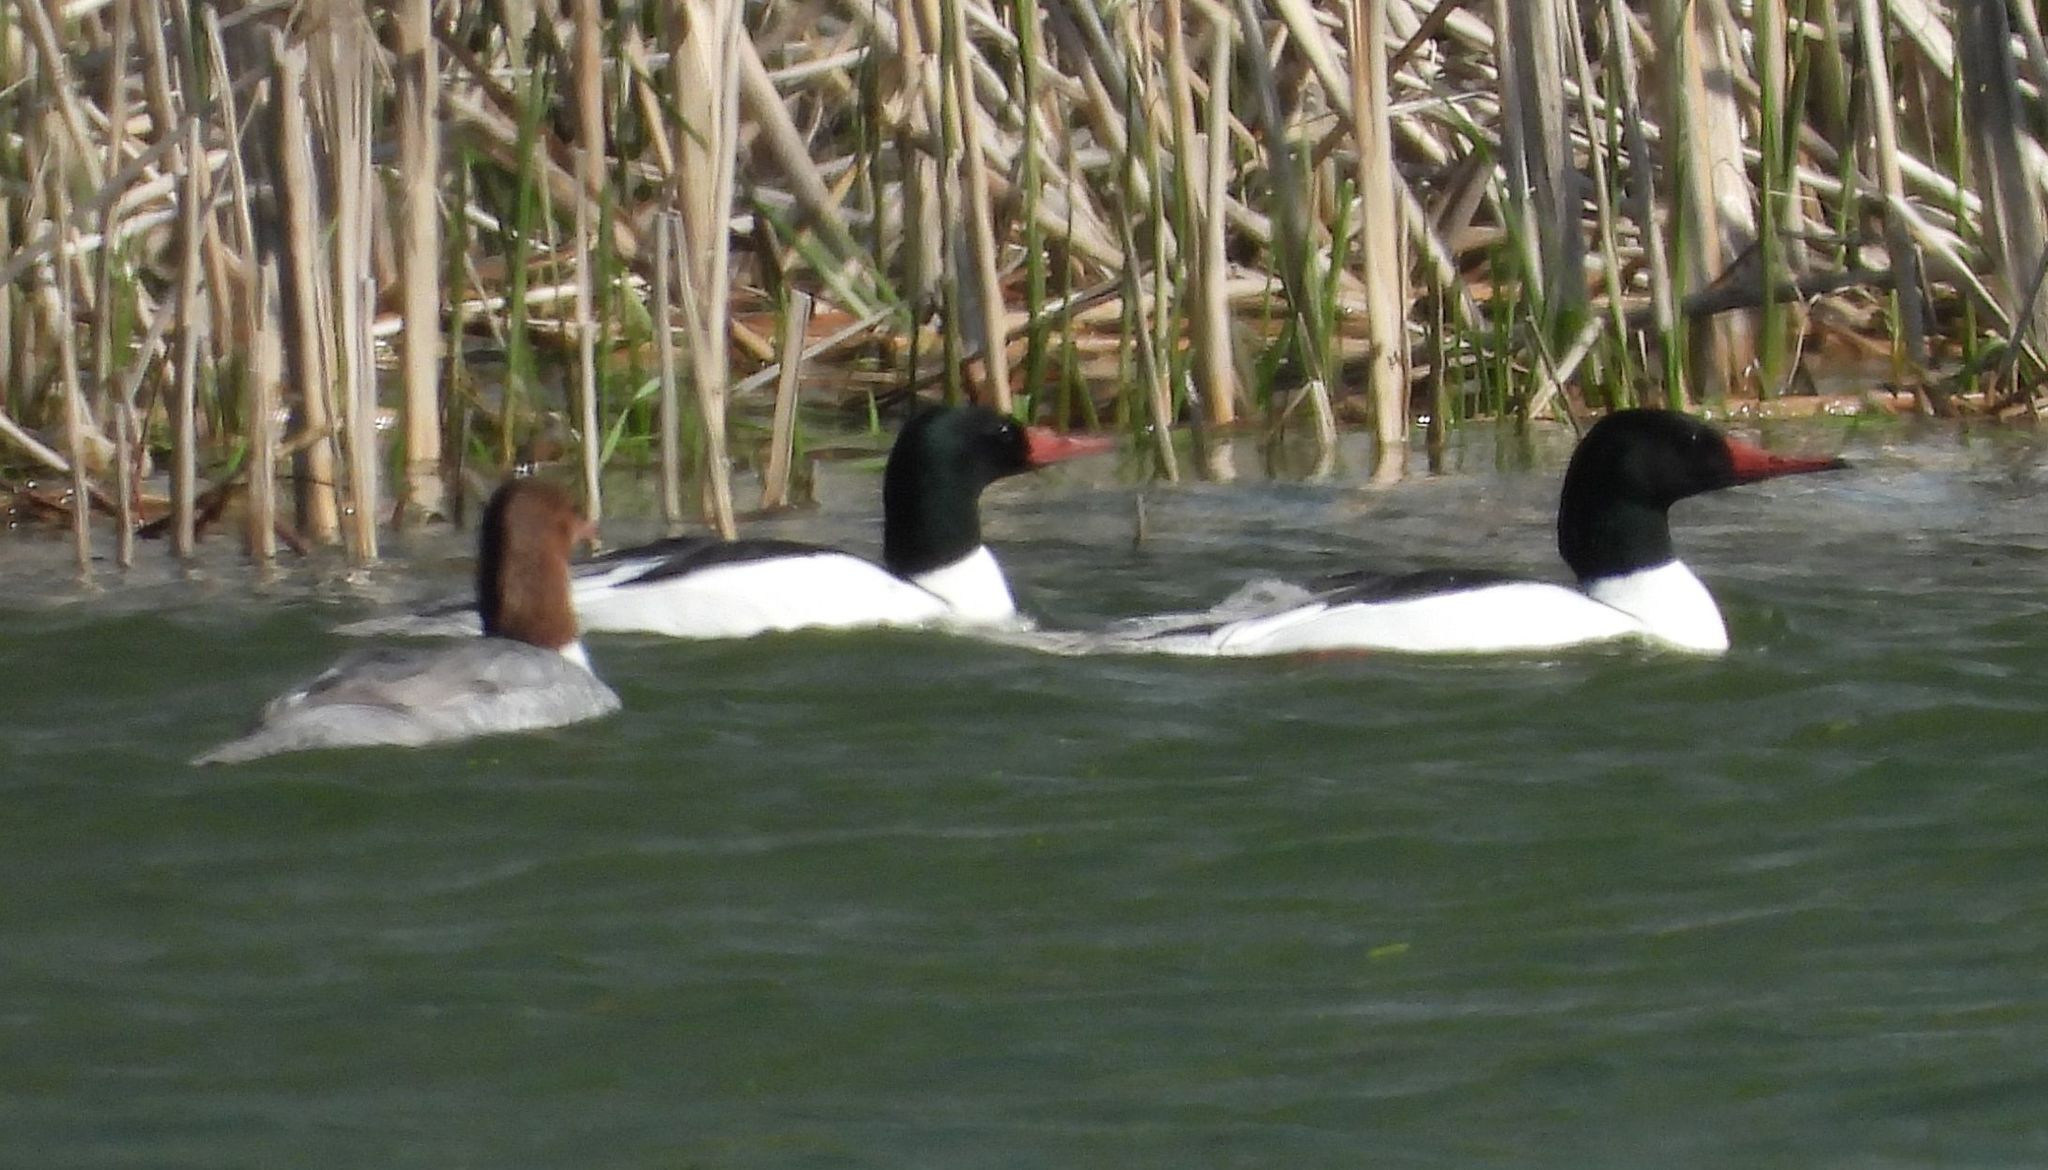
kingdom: Animalia
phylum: Chordata
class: Aves
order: Anseriformes
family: Anatidae
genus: Mergus
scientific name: Mergus merganser
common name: Common merganser
